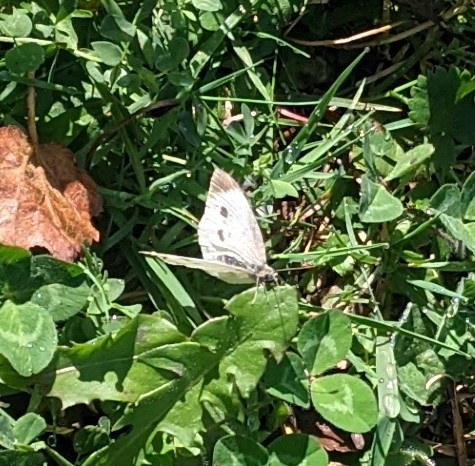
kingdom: Animalia
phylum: Arthropoda
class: Insecta
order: Lepidoptera
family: Pieridae
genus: Pieris
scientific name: Pieris rapae
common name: Small white
